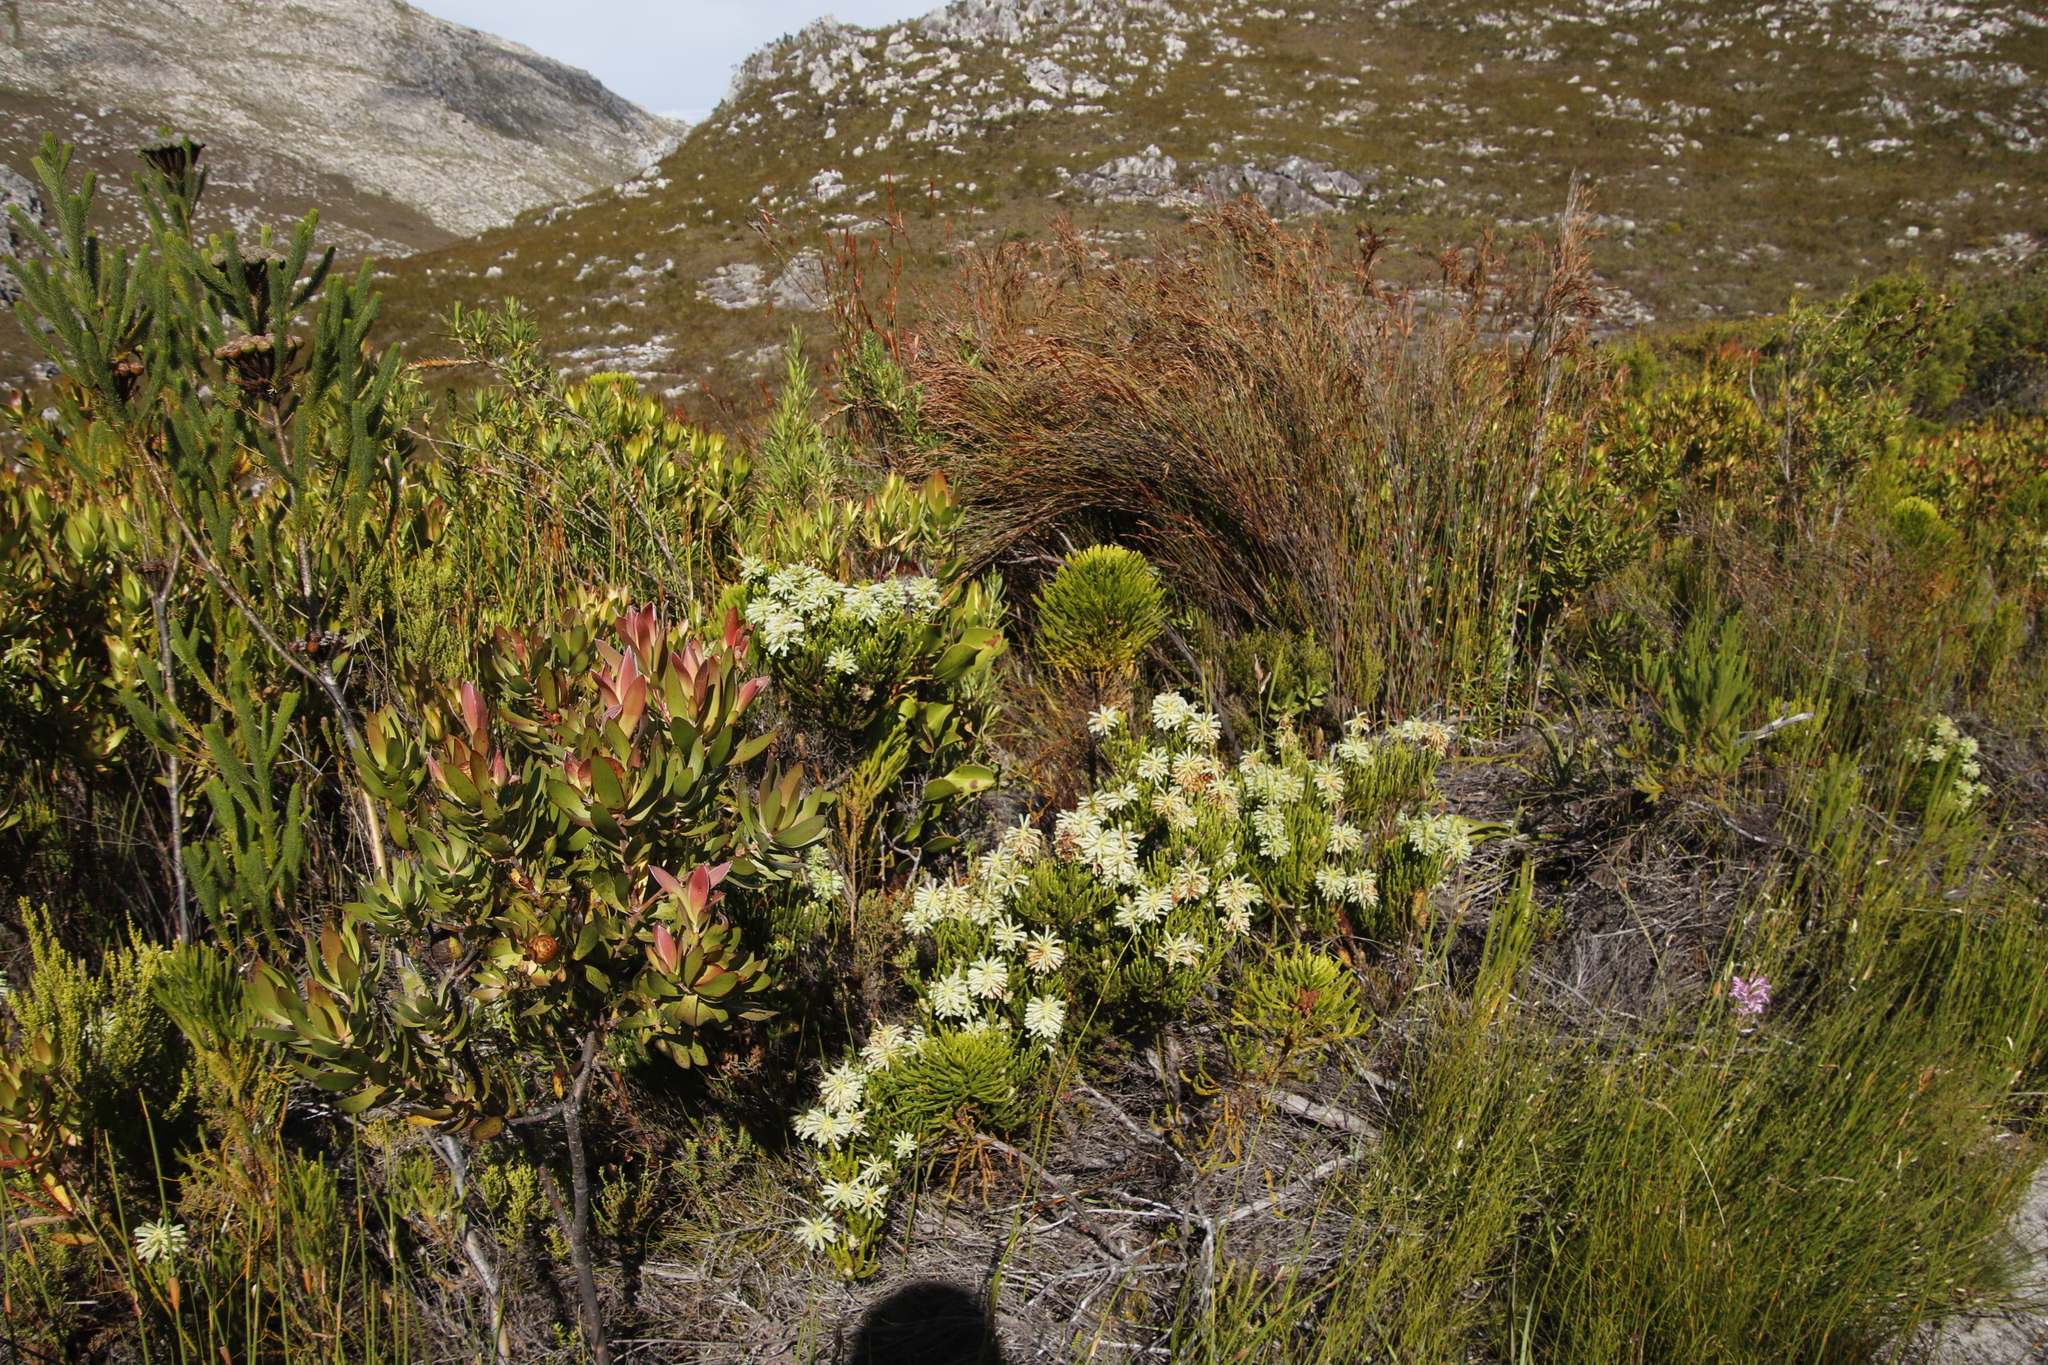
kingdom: Plantae
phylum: Tracheophyta
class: Magnoliopsida
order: Ericales
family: Ericaceae
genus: Erica
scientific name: Erica sessiliflora
